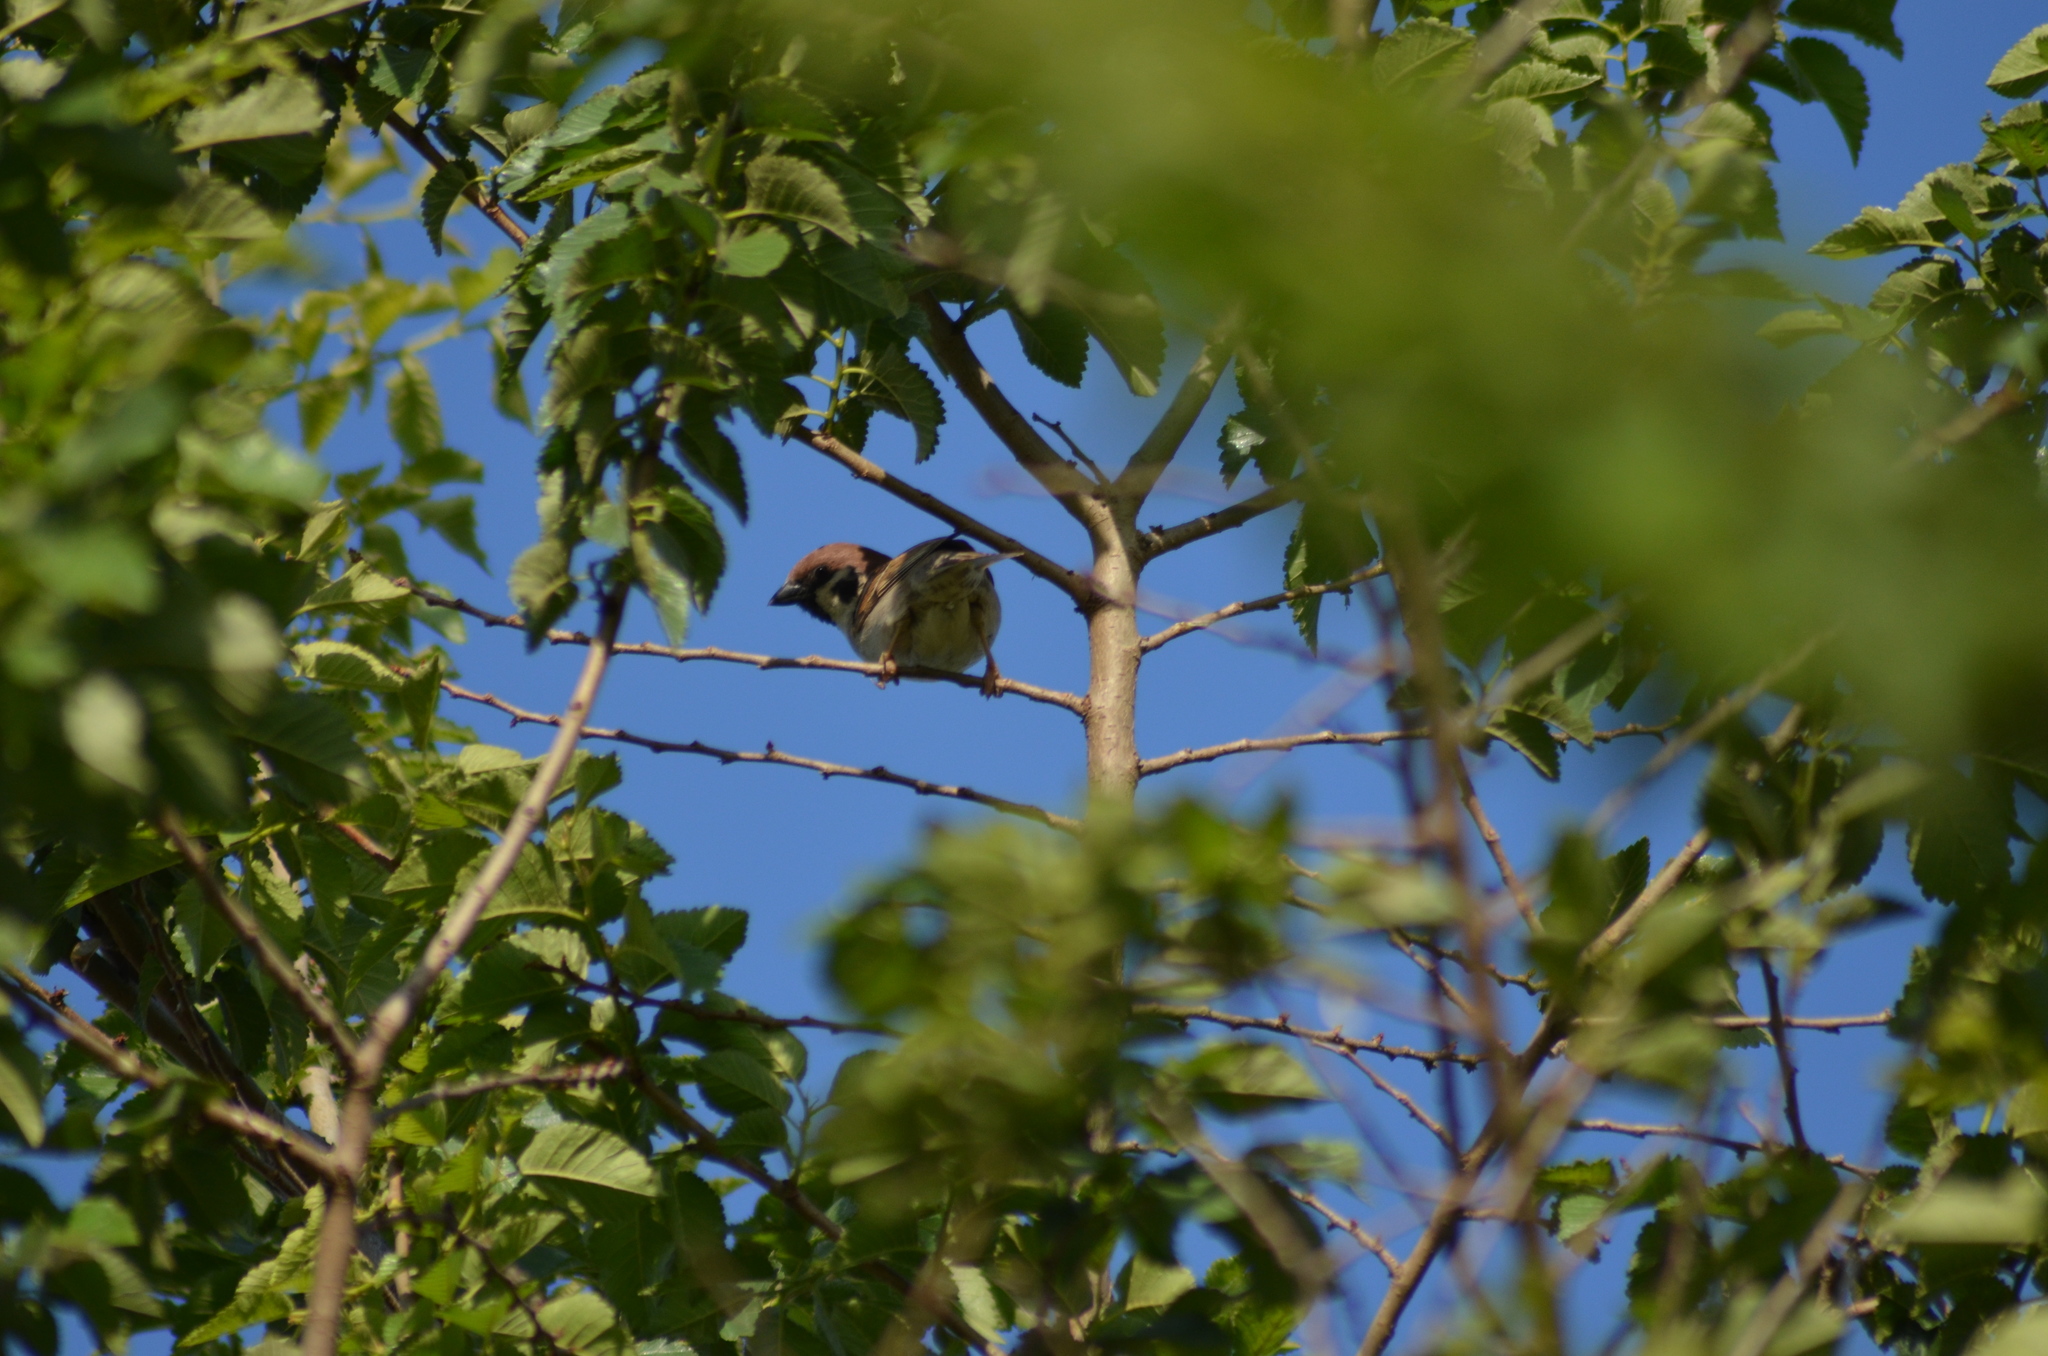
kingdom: Animalia
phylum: Chordata
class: Aves
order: Passeriformes
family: Passeridae
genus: Passer
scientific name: Passer montanus
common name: Eurasian tree sparrow
